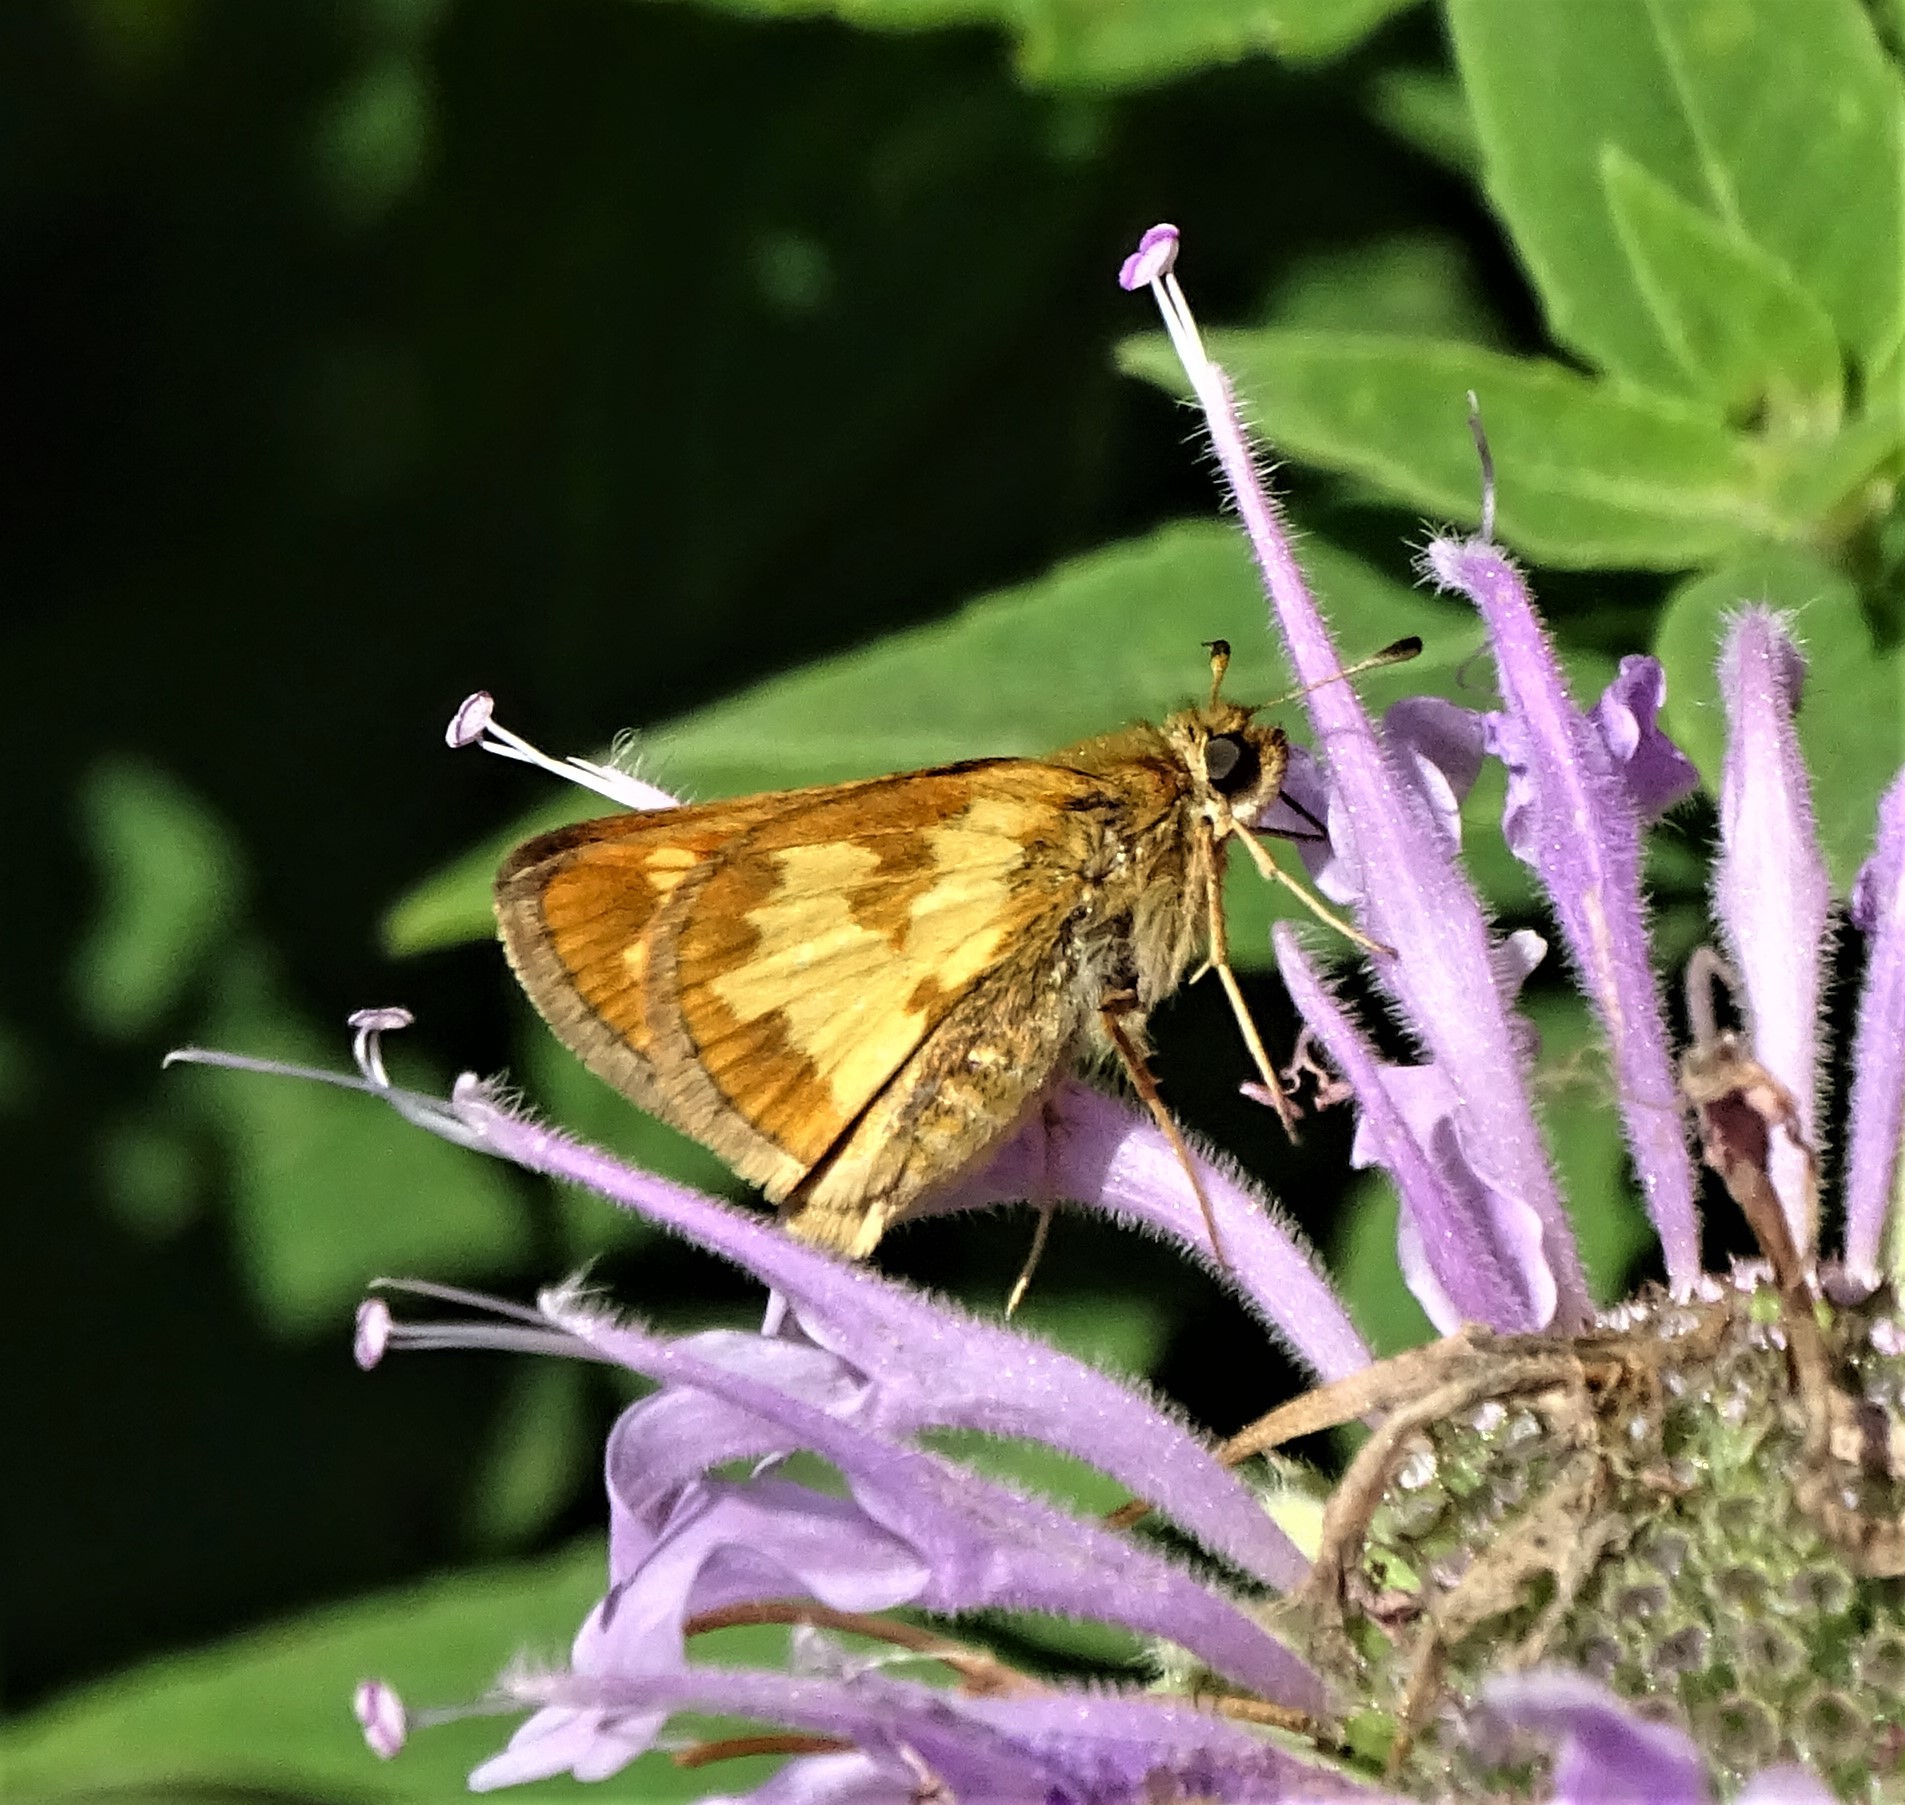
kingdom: Animalia
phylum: Arthropoda
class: Insecta
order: Lepidoptera
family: Hesperiidae
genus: Polites
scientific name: Polites coras
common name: Peck's skipper
